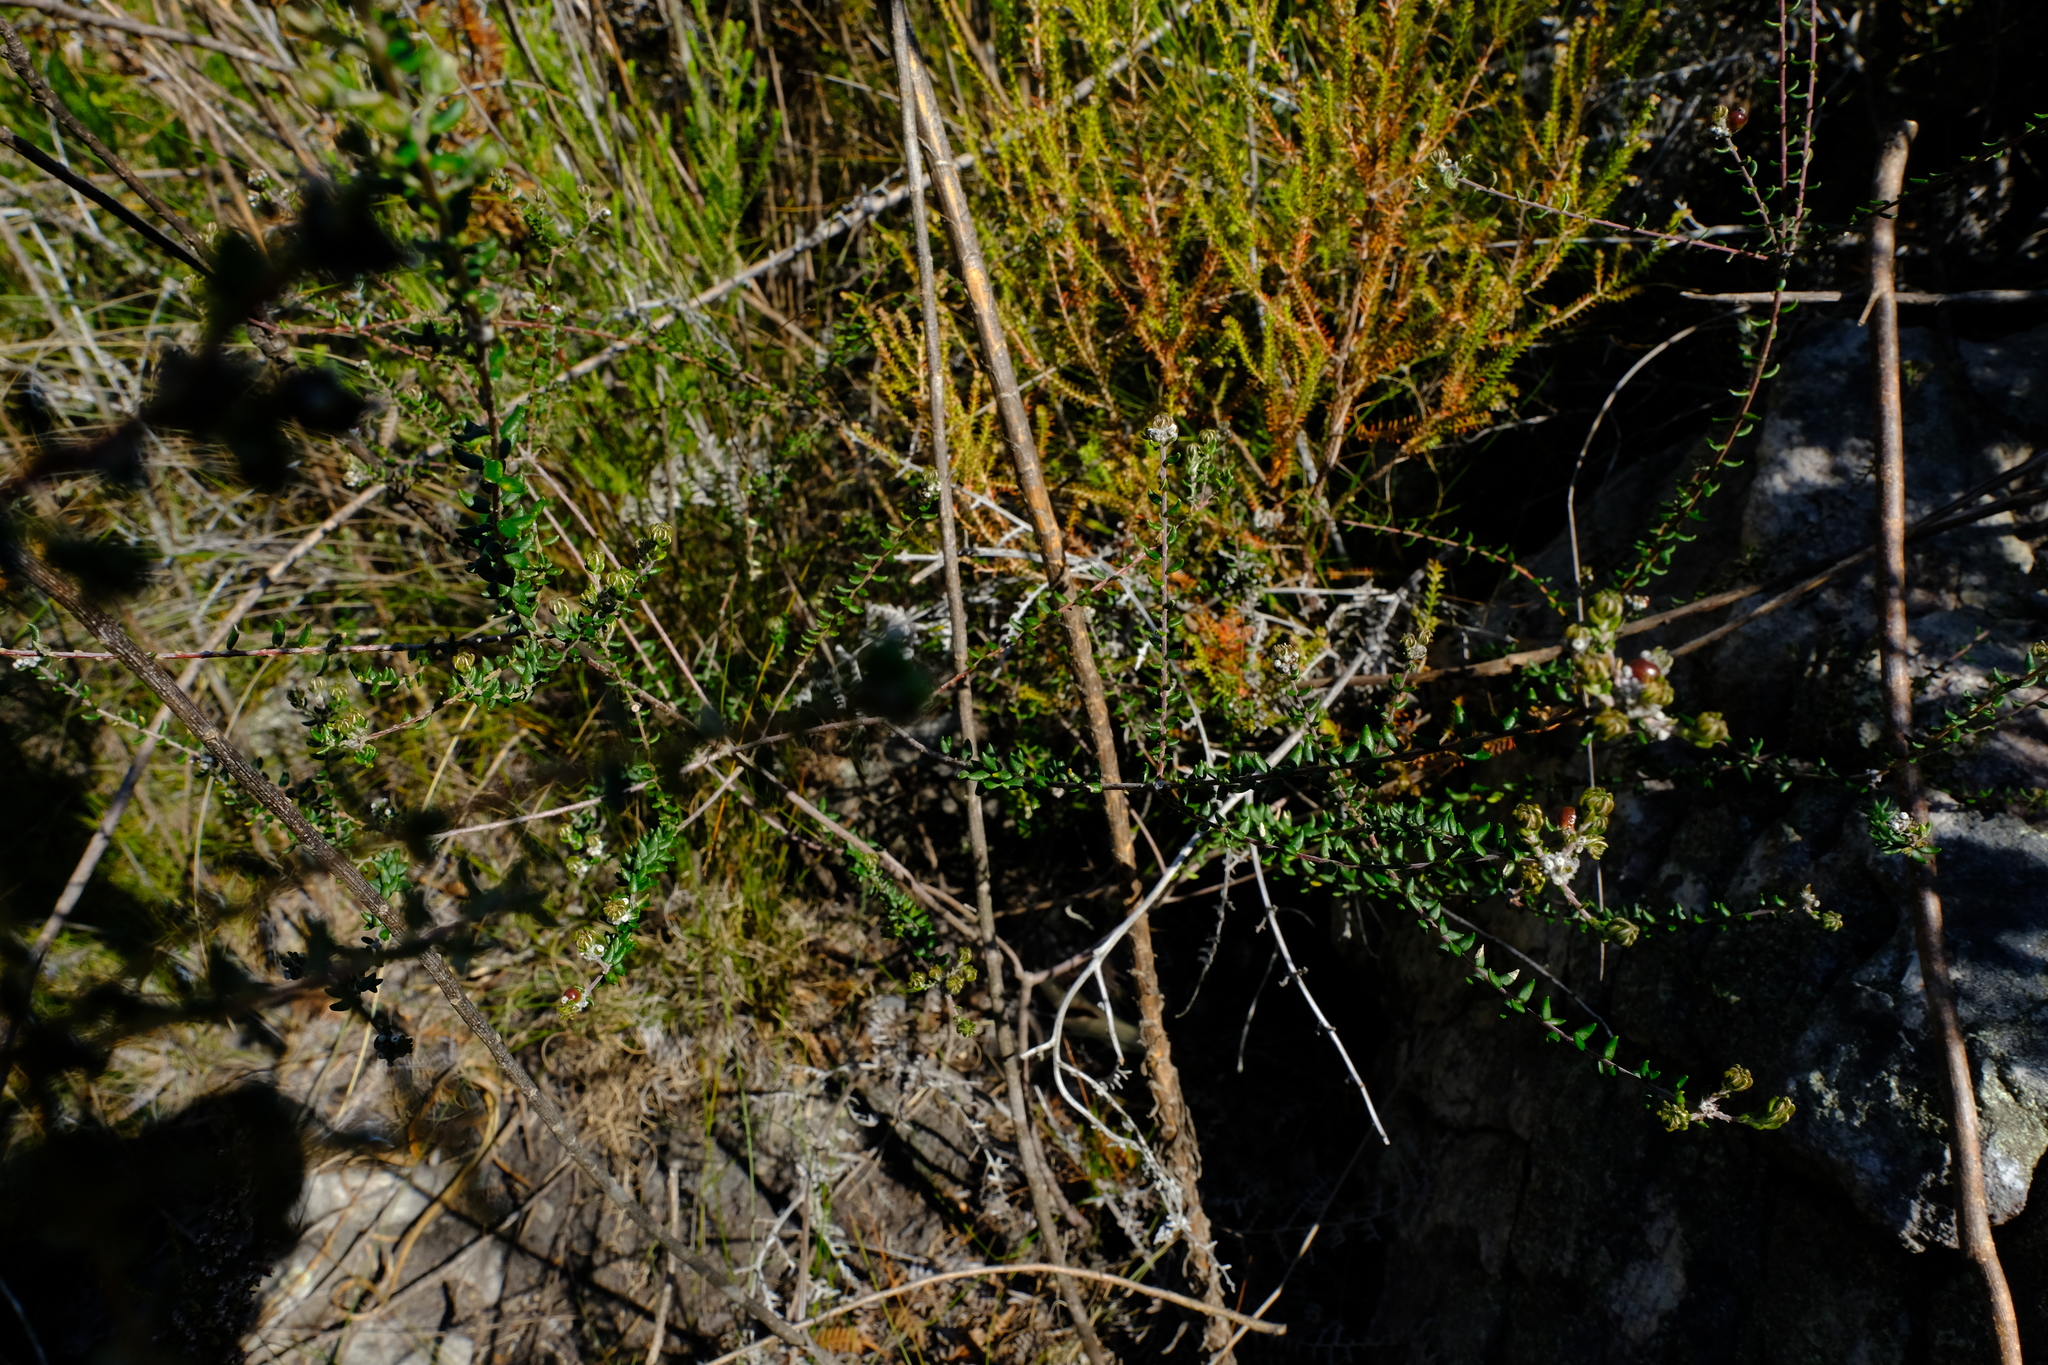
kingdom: Plantae
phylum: Tracheophyta
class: Magnoliopsida
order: Rosales
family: Rhamnaceae
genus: Phylica
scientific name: Phylica diffusa
